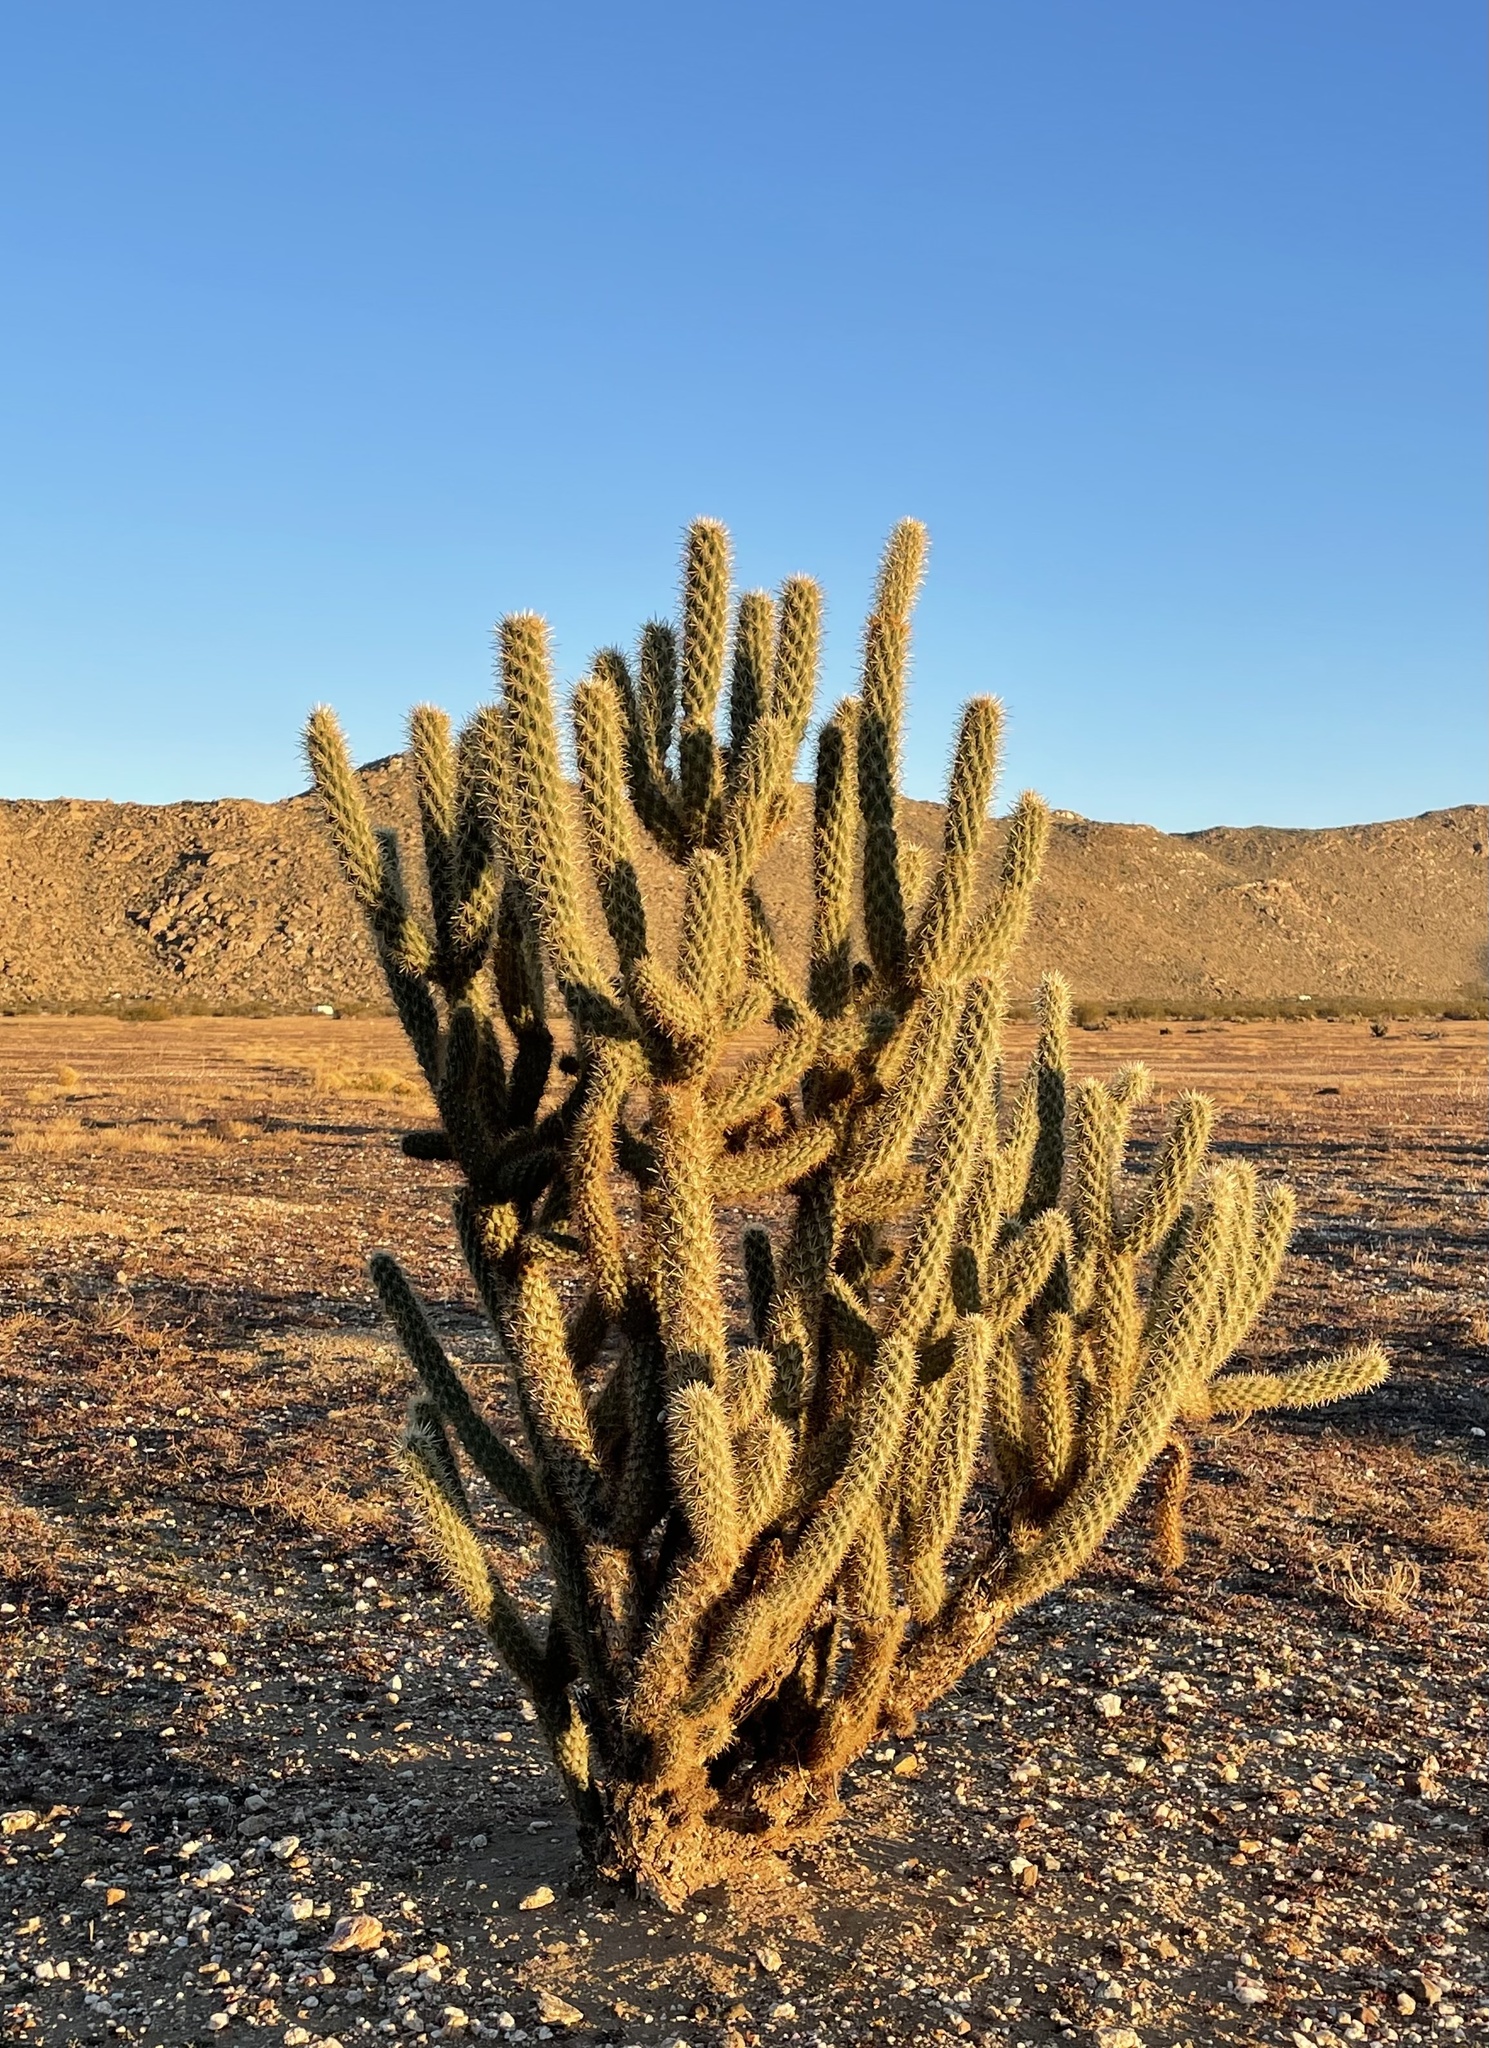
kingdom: Plantae
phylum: Tracheophyta
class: Magnoliopsida
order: Caryophyllales
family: Cactaceae
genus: Cylindropuntia
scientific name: Cylindropuntia ganderi
